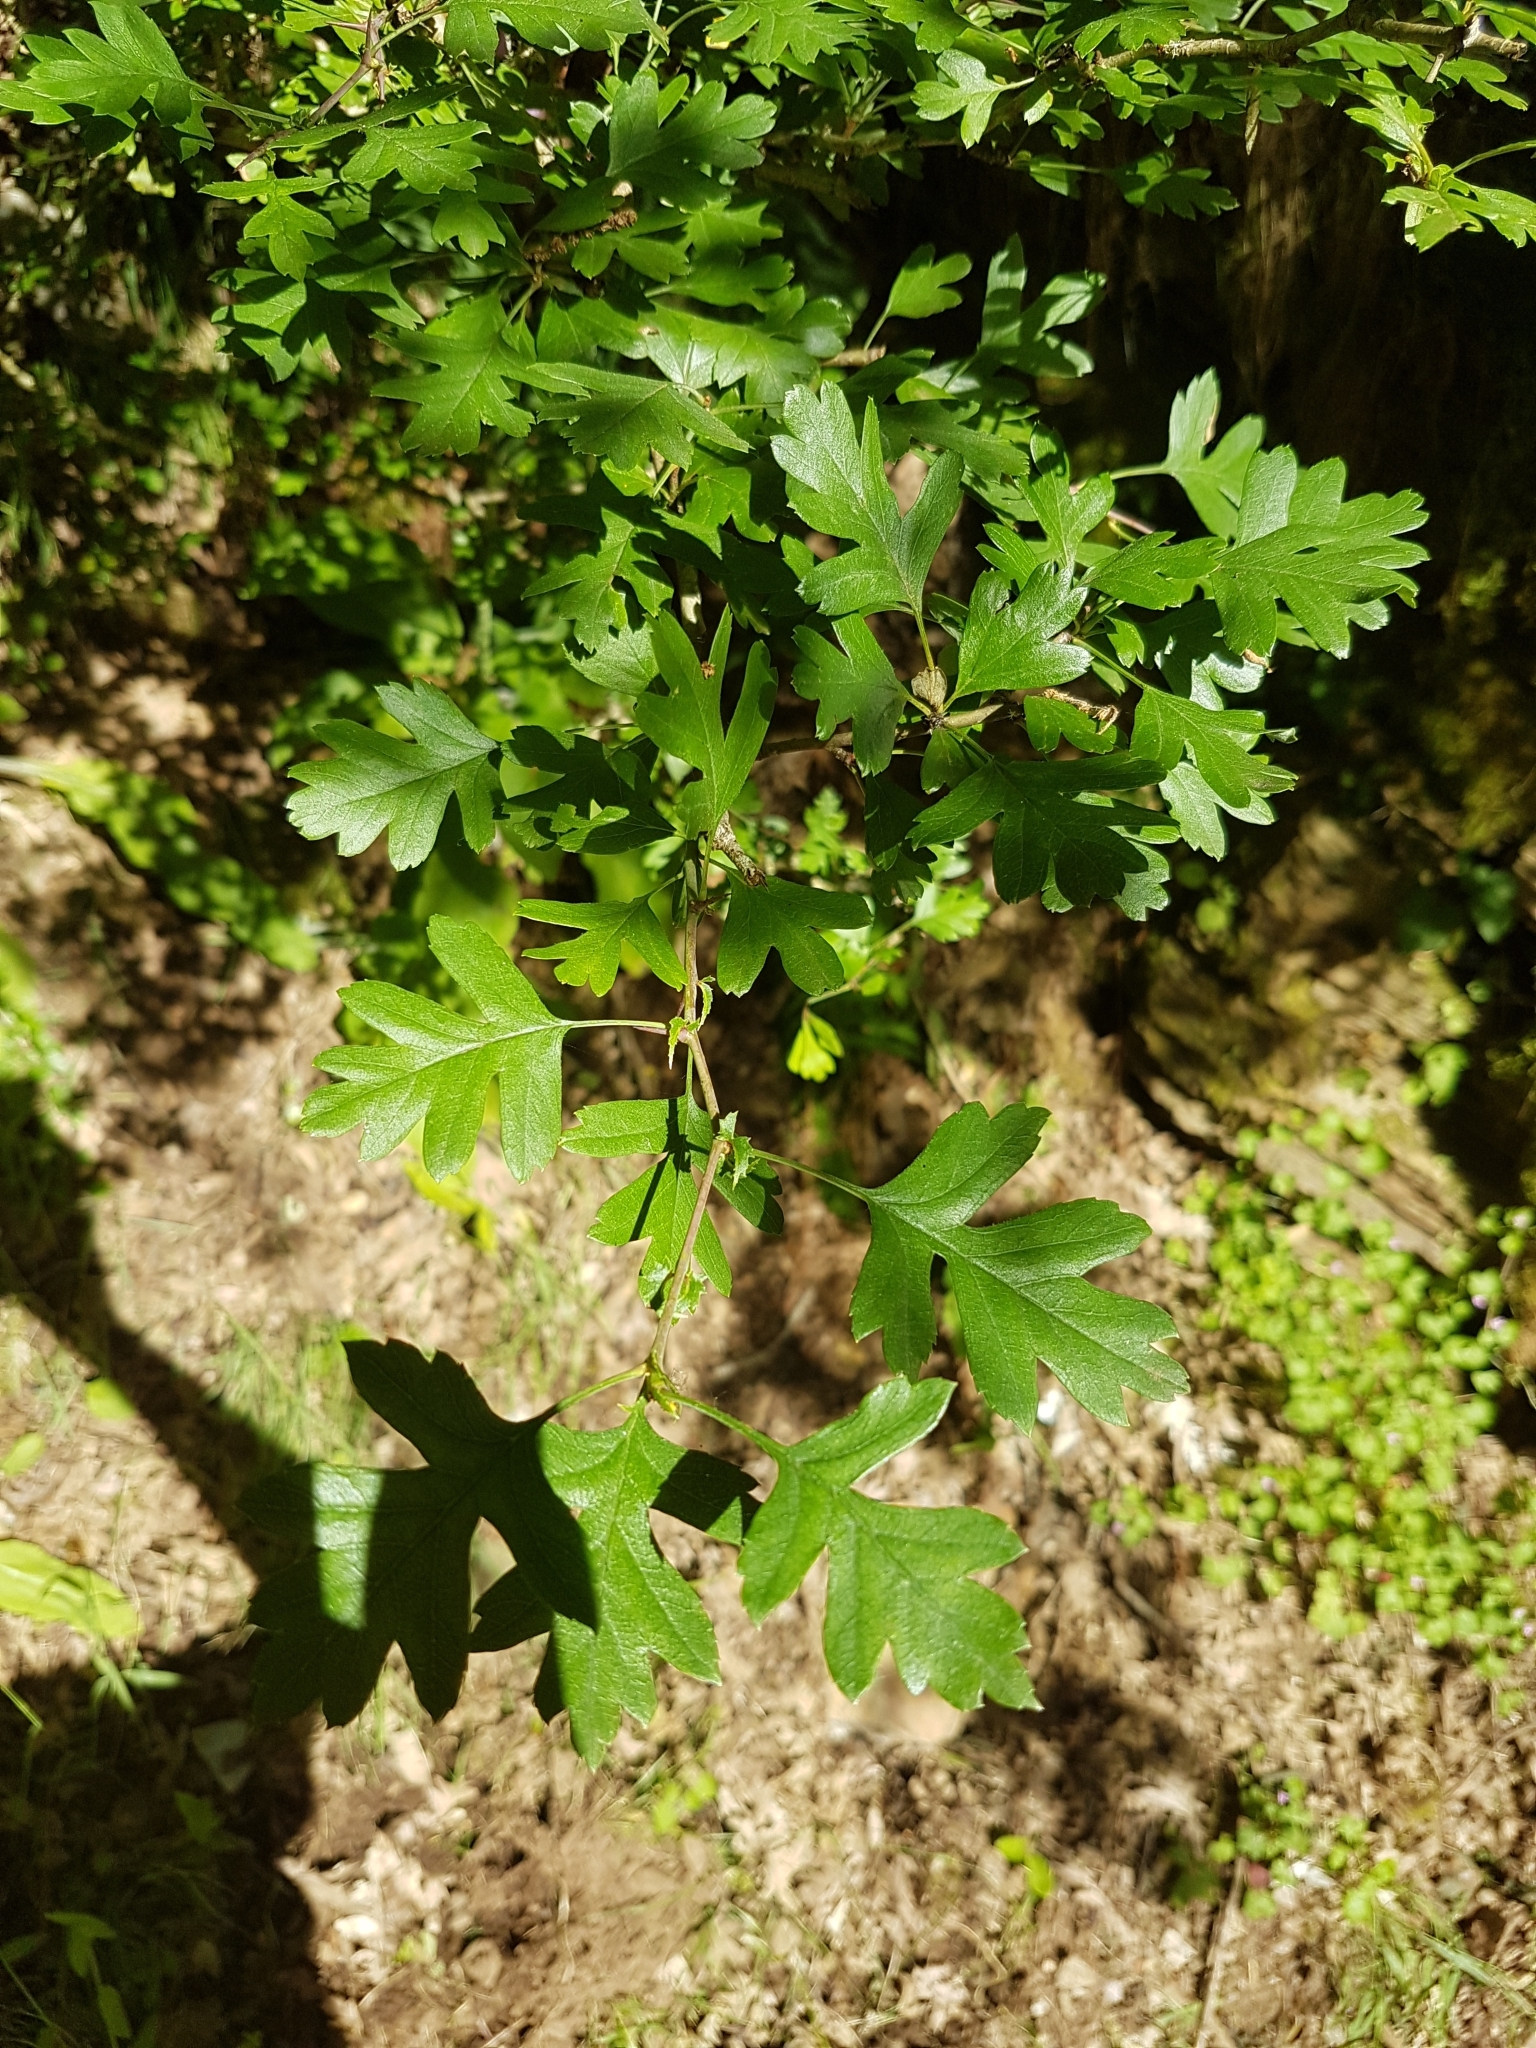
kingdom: Plantae
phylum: Tracheophyta
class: Magnoliopsida
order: Rosales
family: Rosaceae
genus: Crataegus
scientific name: Crataegus monogyna
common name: Hawthorn
